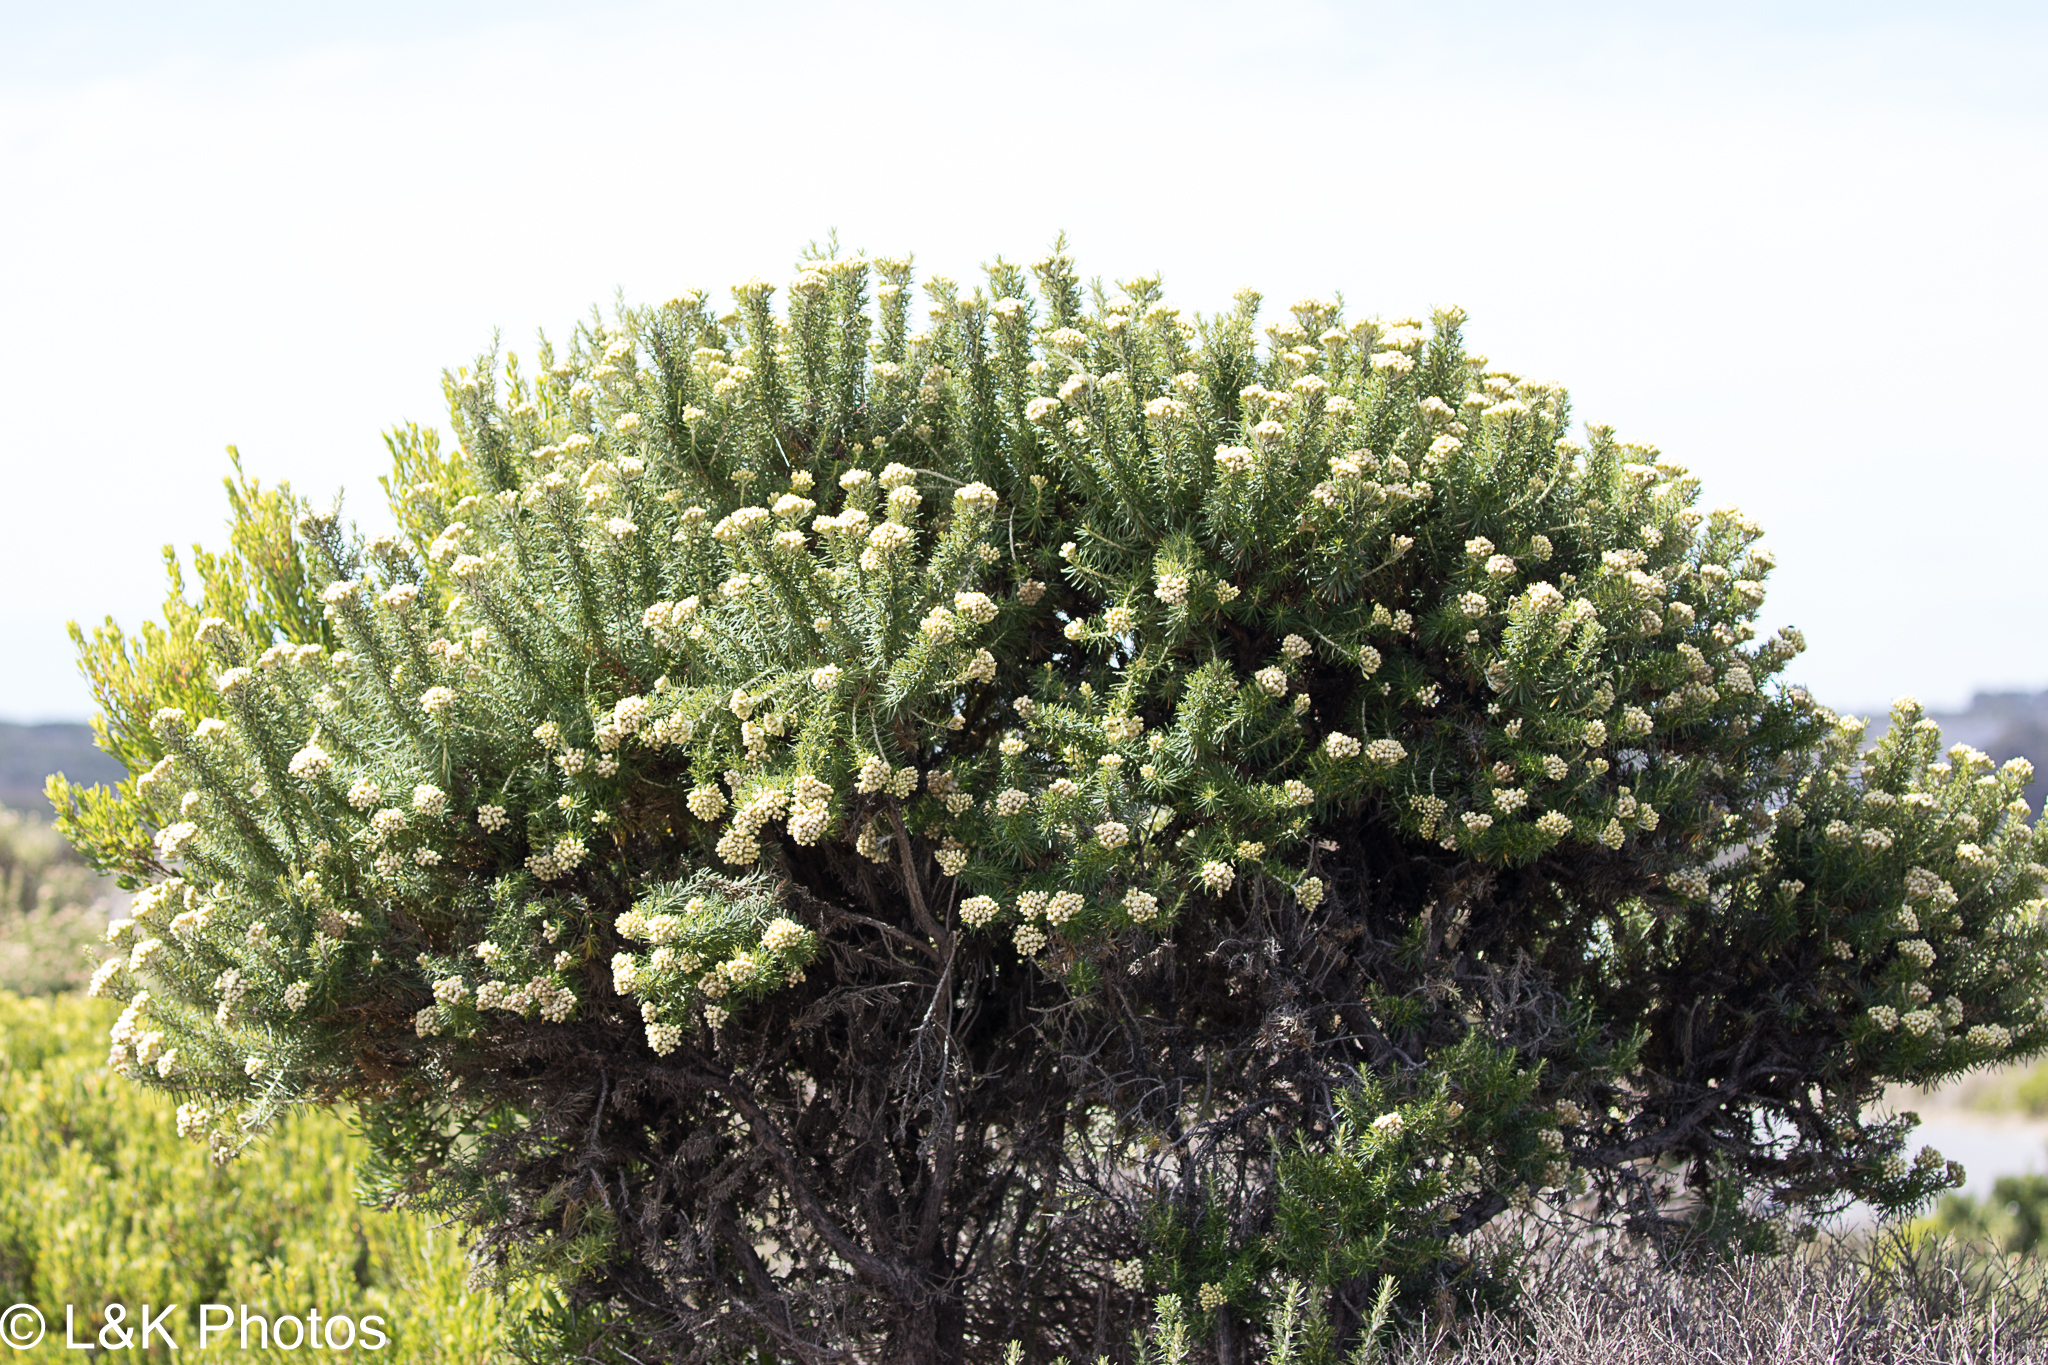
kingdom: Plantae
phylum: Tracheophyta
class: Magnoliopsida
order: Asterales
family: Asteraceae
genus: Ozothamnus
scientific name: Ozothamnus cinereus
